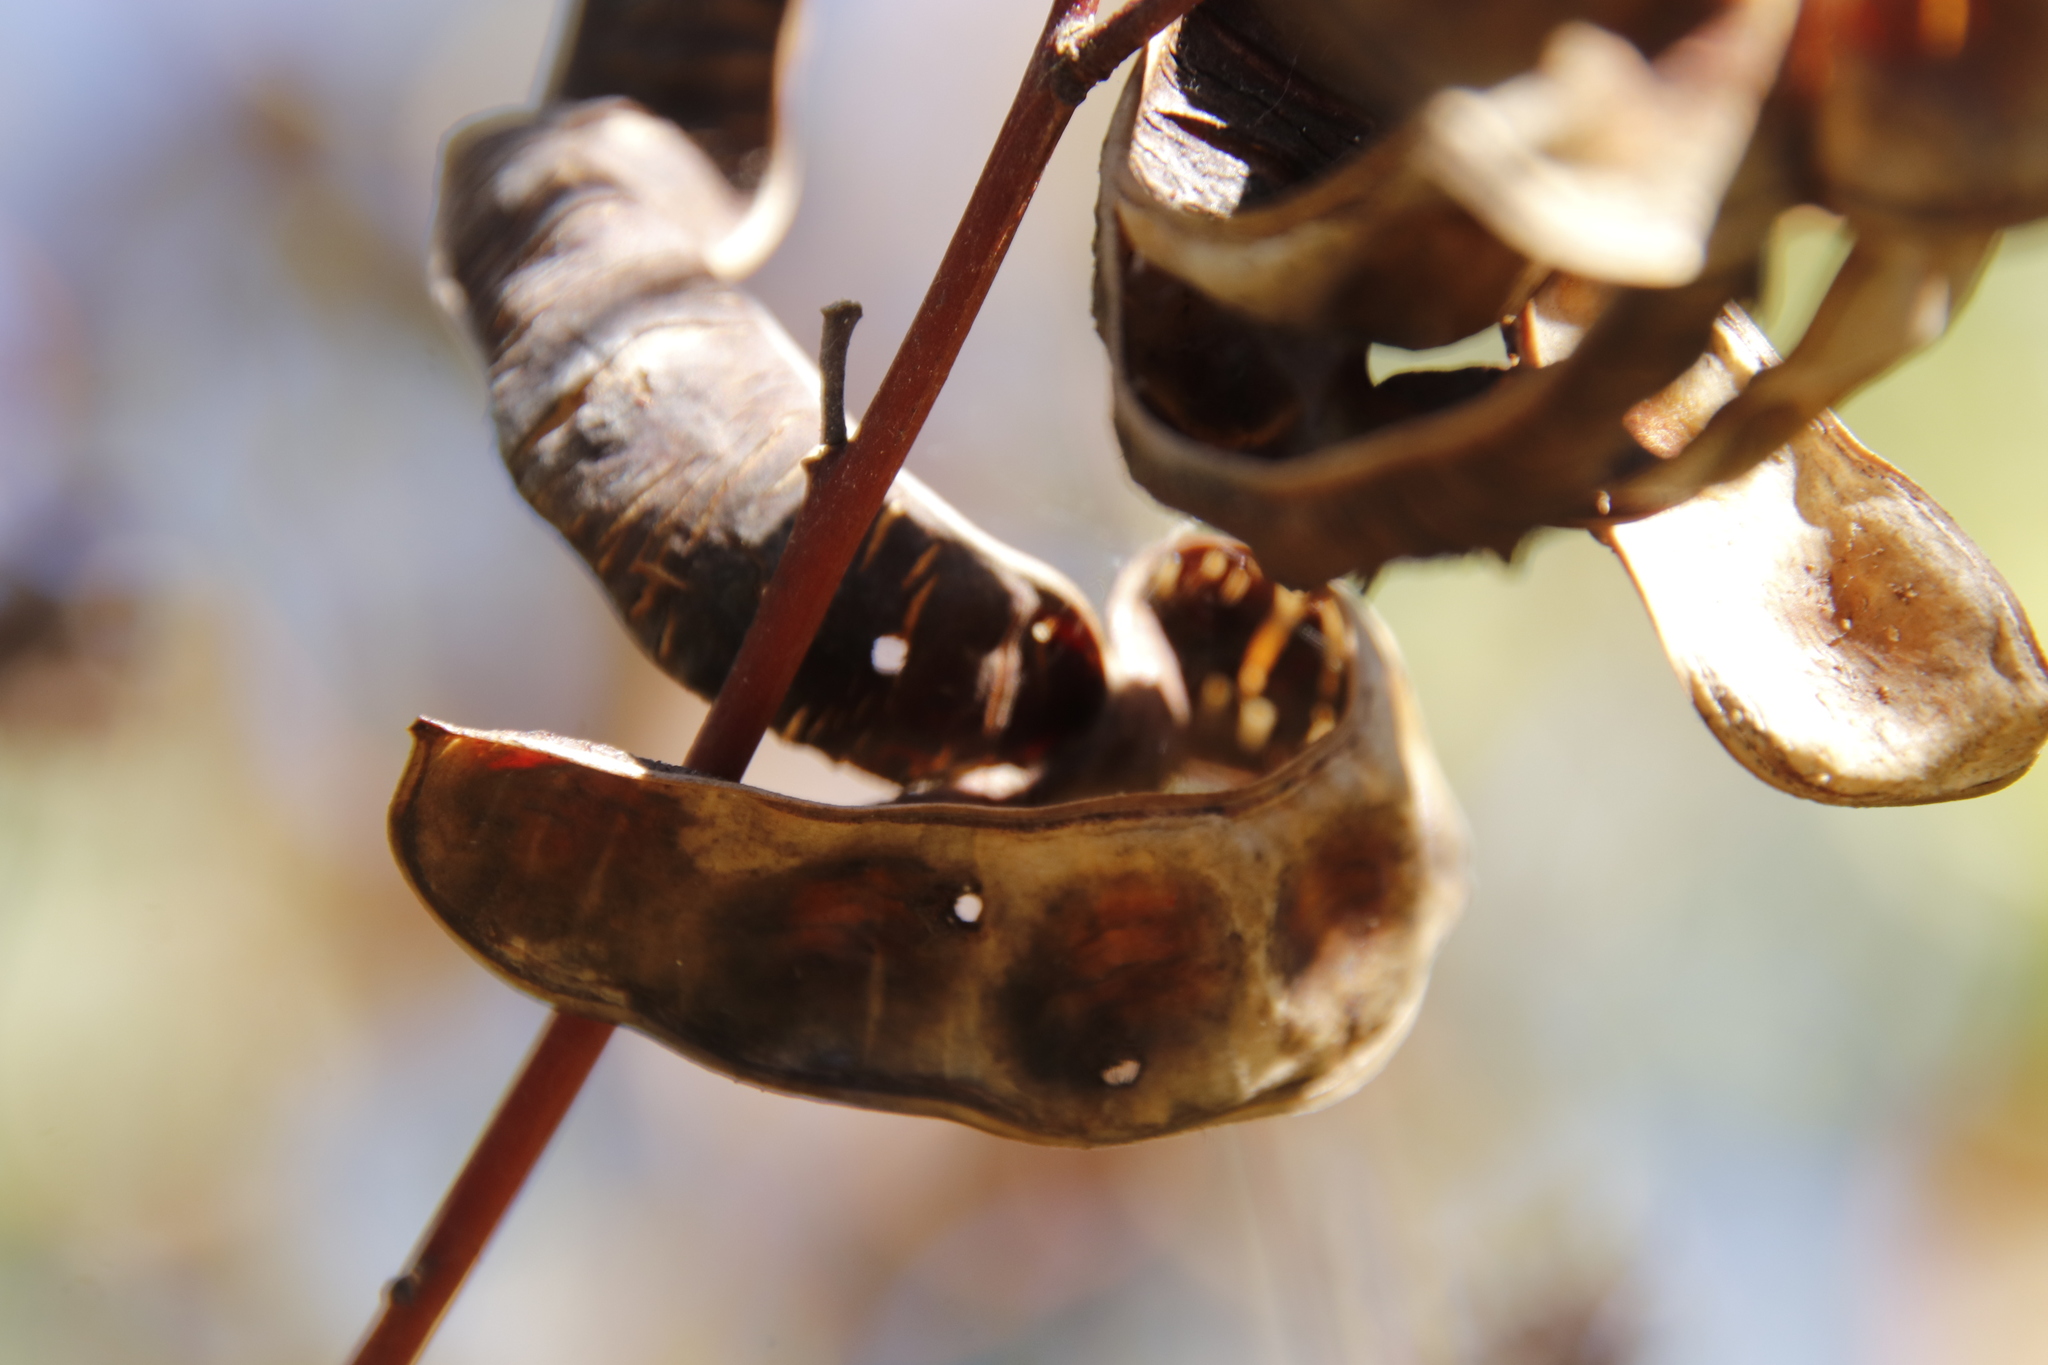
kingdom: Plantae
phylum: Tracheophyta
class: Magnoliopsida
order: Fabales
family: Fabaceae
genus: Acacia
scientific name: Acacia cyclops
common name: Coastal wattle
